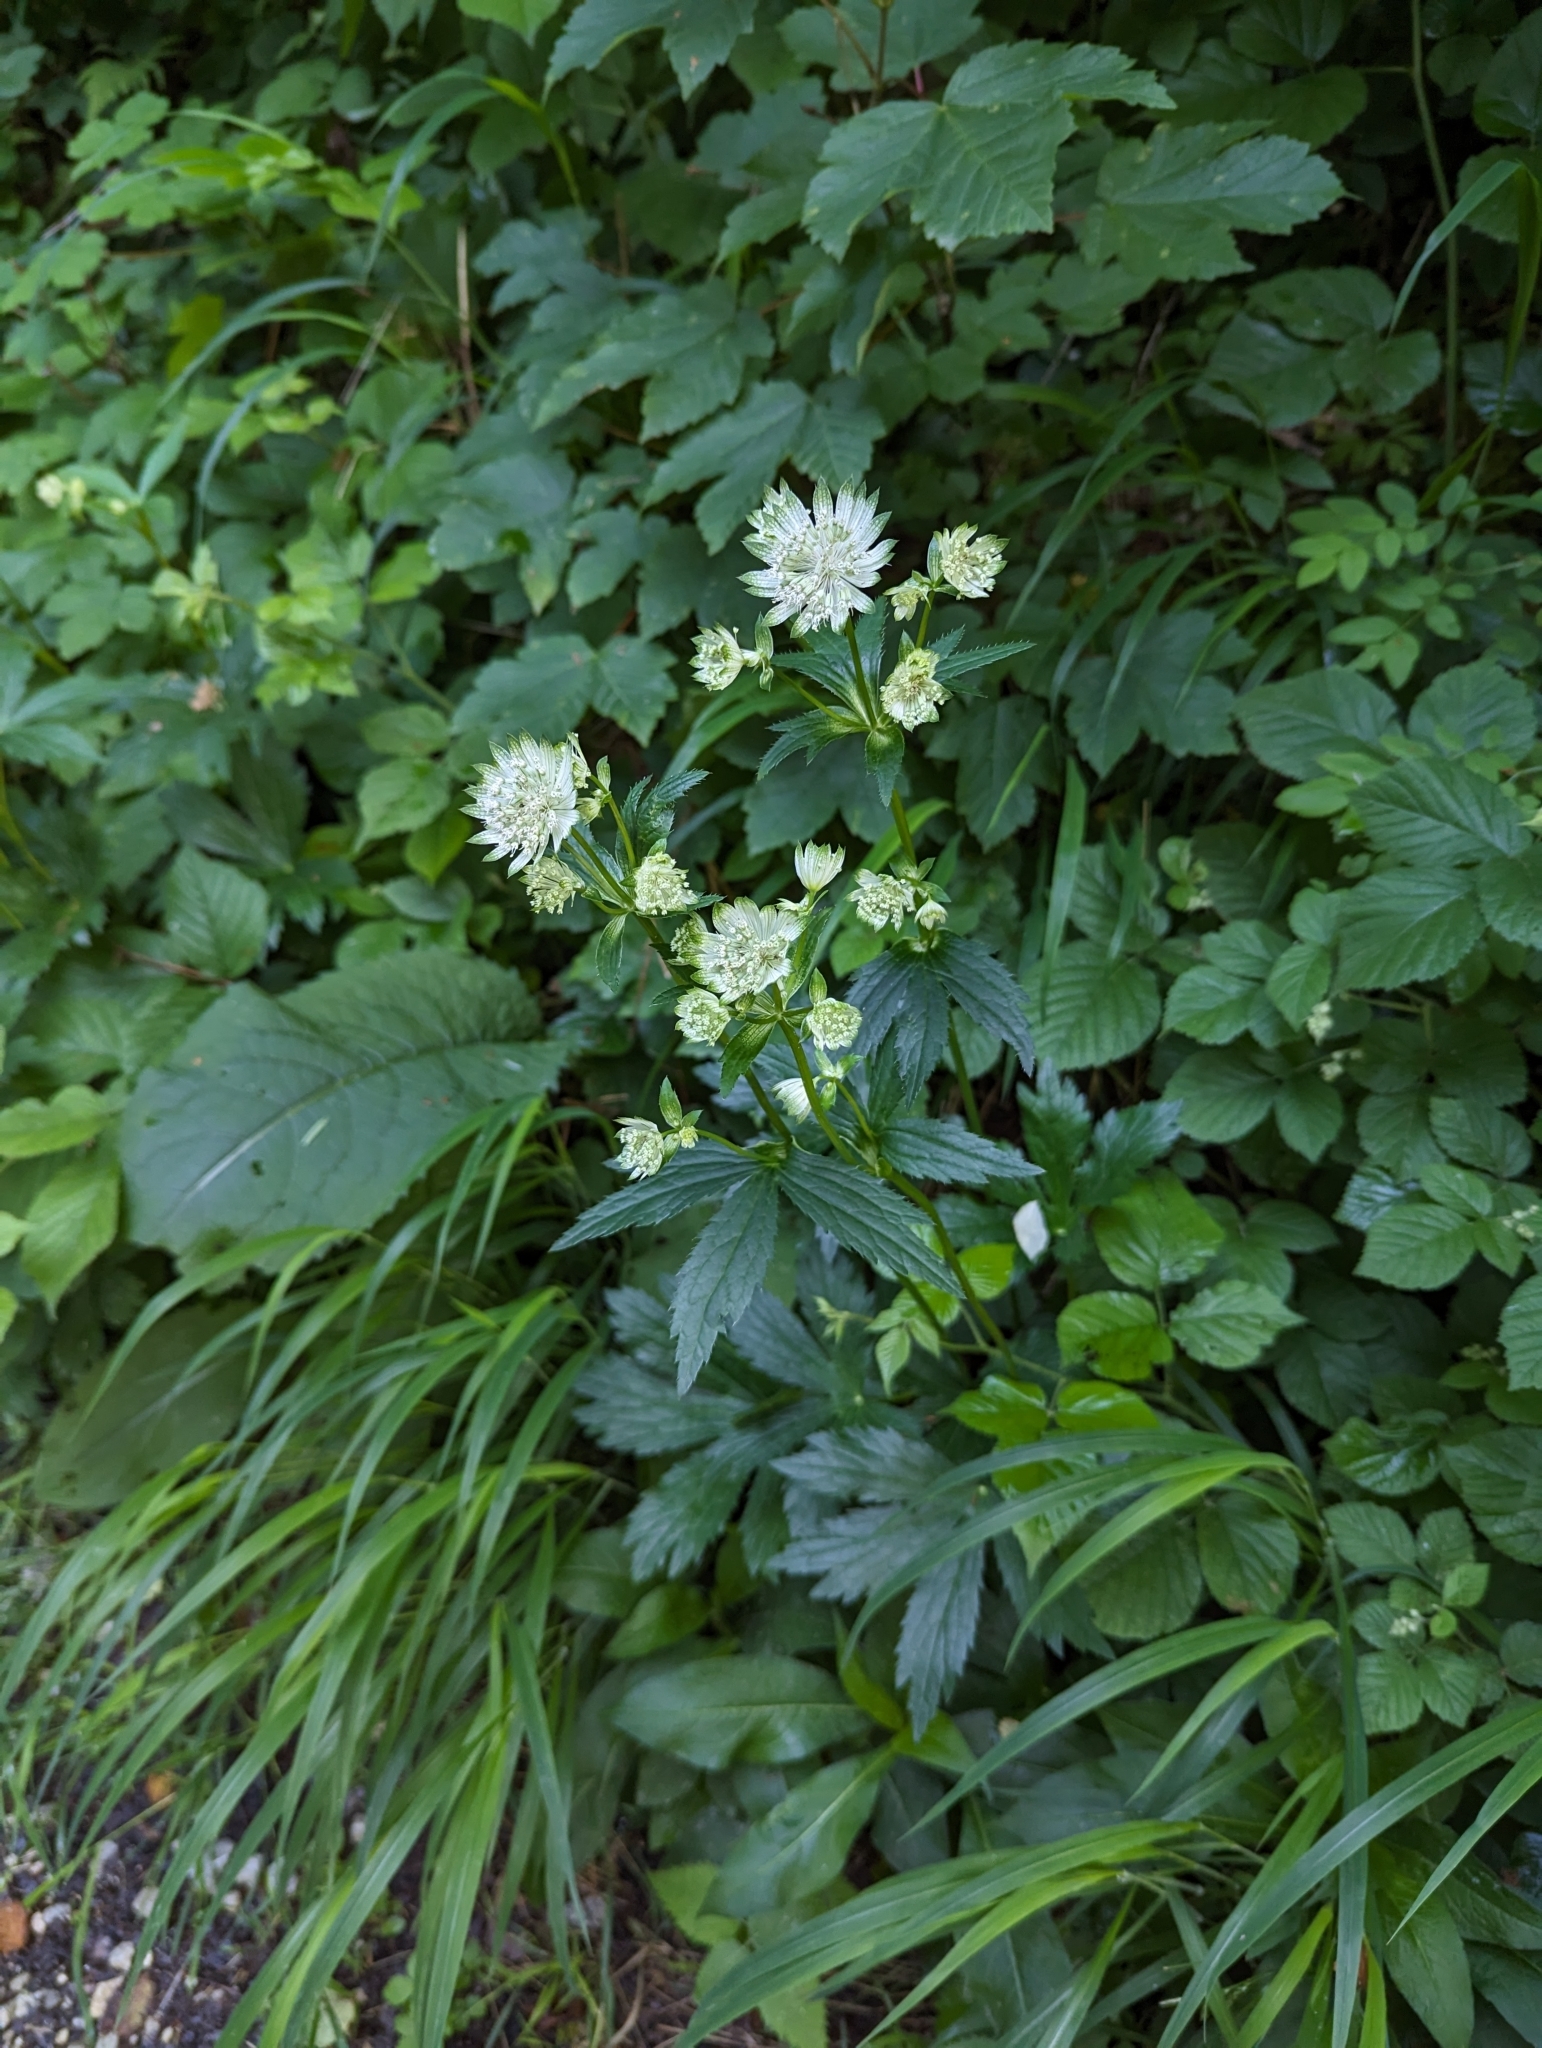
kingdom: Plantae
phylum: Tracheophyta
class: Magnoliopsida
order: Apiales
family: Apiaceae
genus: Astrantia
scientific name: Astrantia major
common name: Greater masterwort
